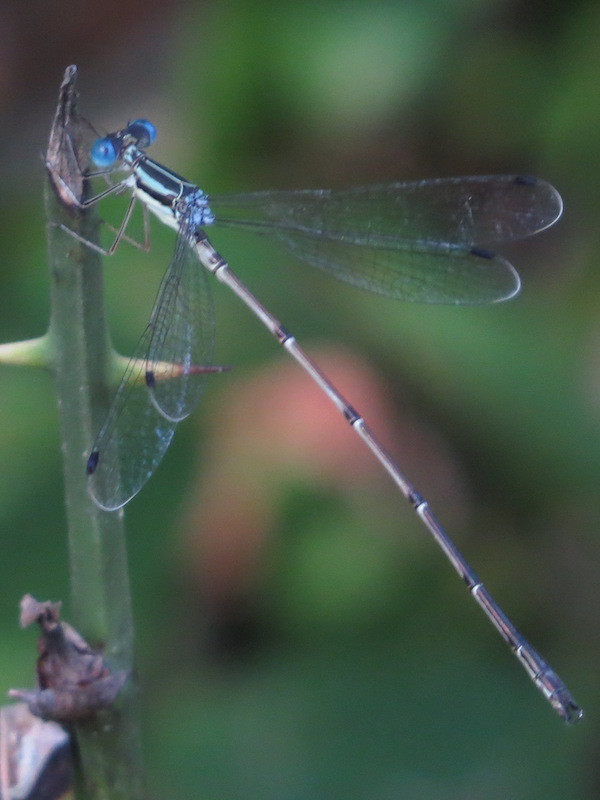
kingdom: Animalia
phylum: Arthropoda
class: Insecta
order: Odonata
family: Lestidae
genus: Lestes
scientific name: Lestes rectangularis
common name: Slender spreadwing
